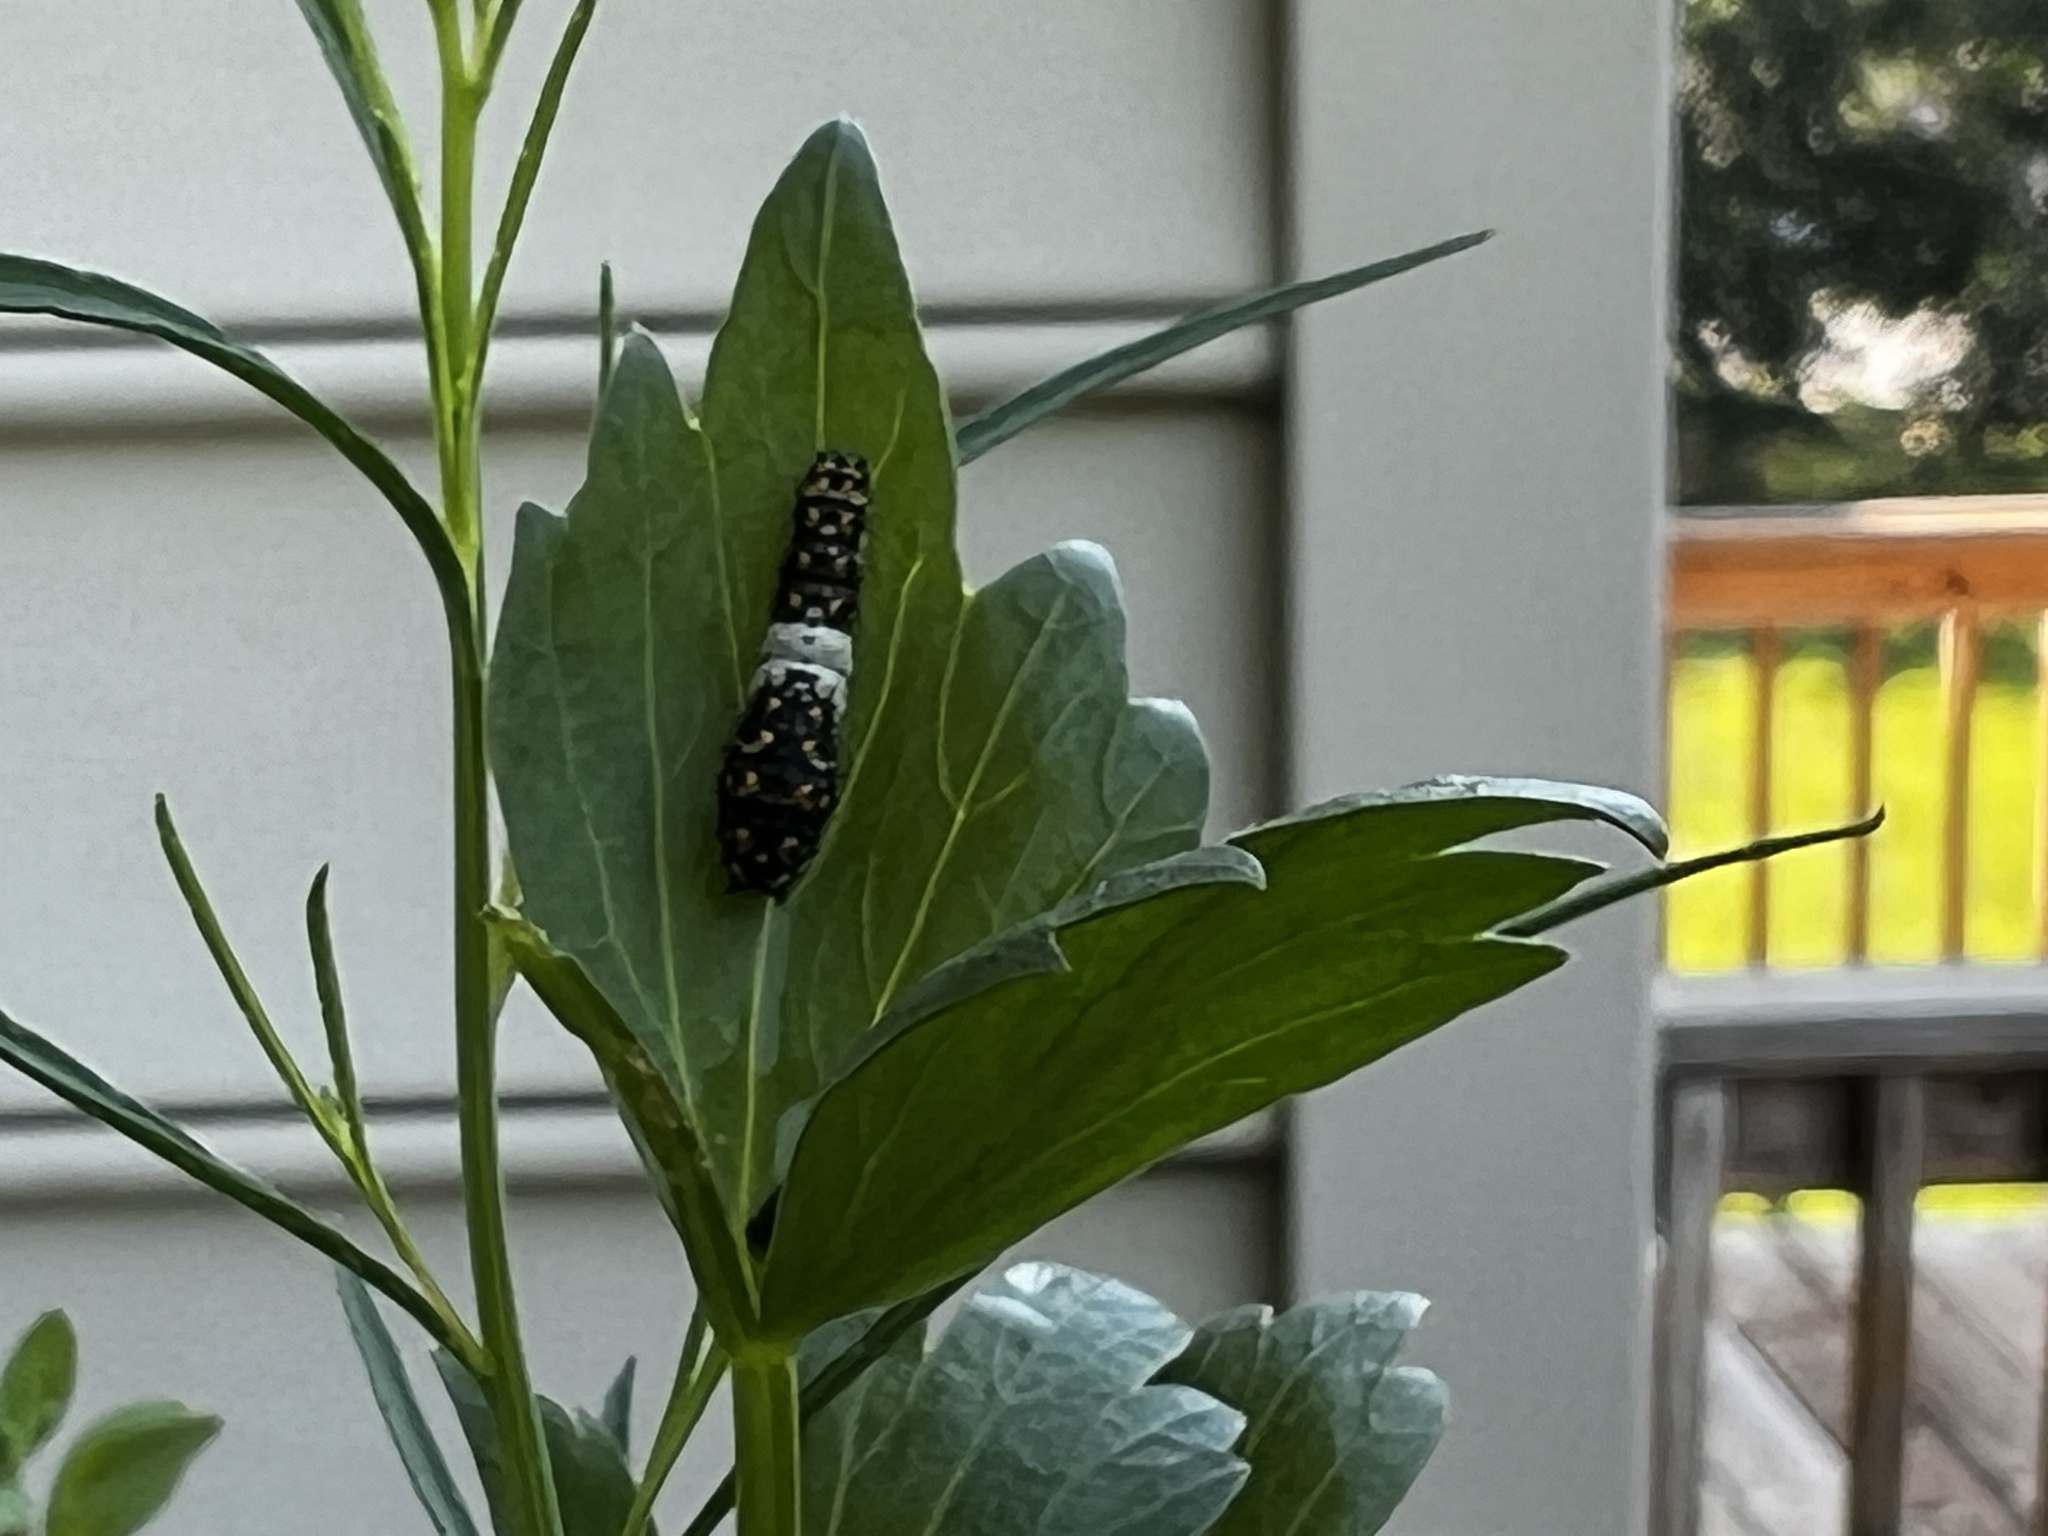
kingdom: Animalia
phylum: Arthropoda
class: Insecta
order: Lepidoptera
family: Papilionidae
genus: Papilio
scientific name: Papilio polyxenes
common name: Black swallowtail
